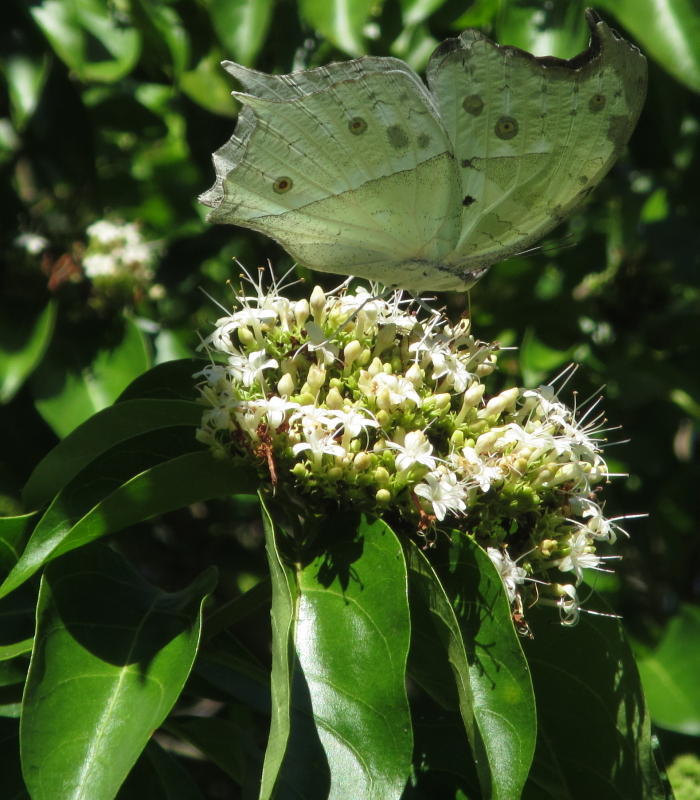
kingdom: Plantae
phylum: Tracheophyta
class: Magnoliopsida
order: Lamiales
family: Lamiaceae
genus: Volkameria
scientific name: Volkameria glabra
